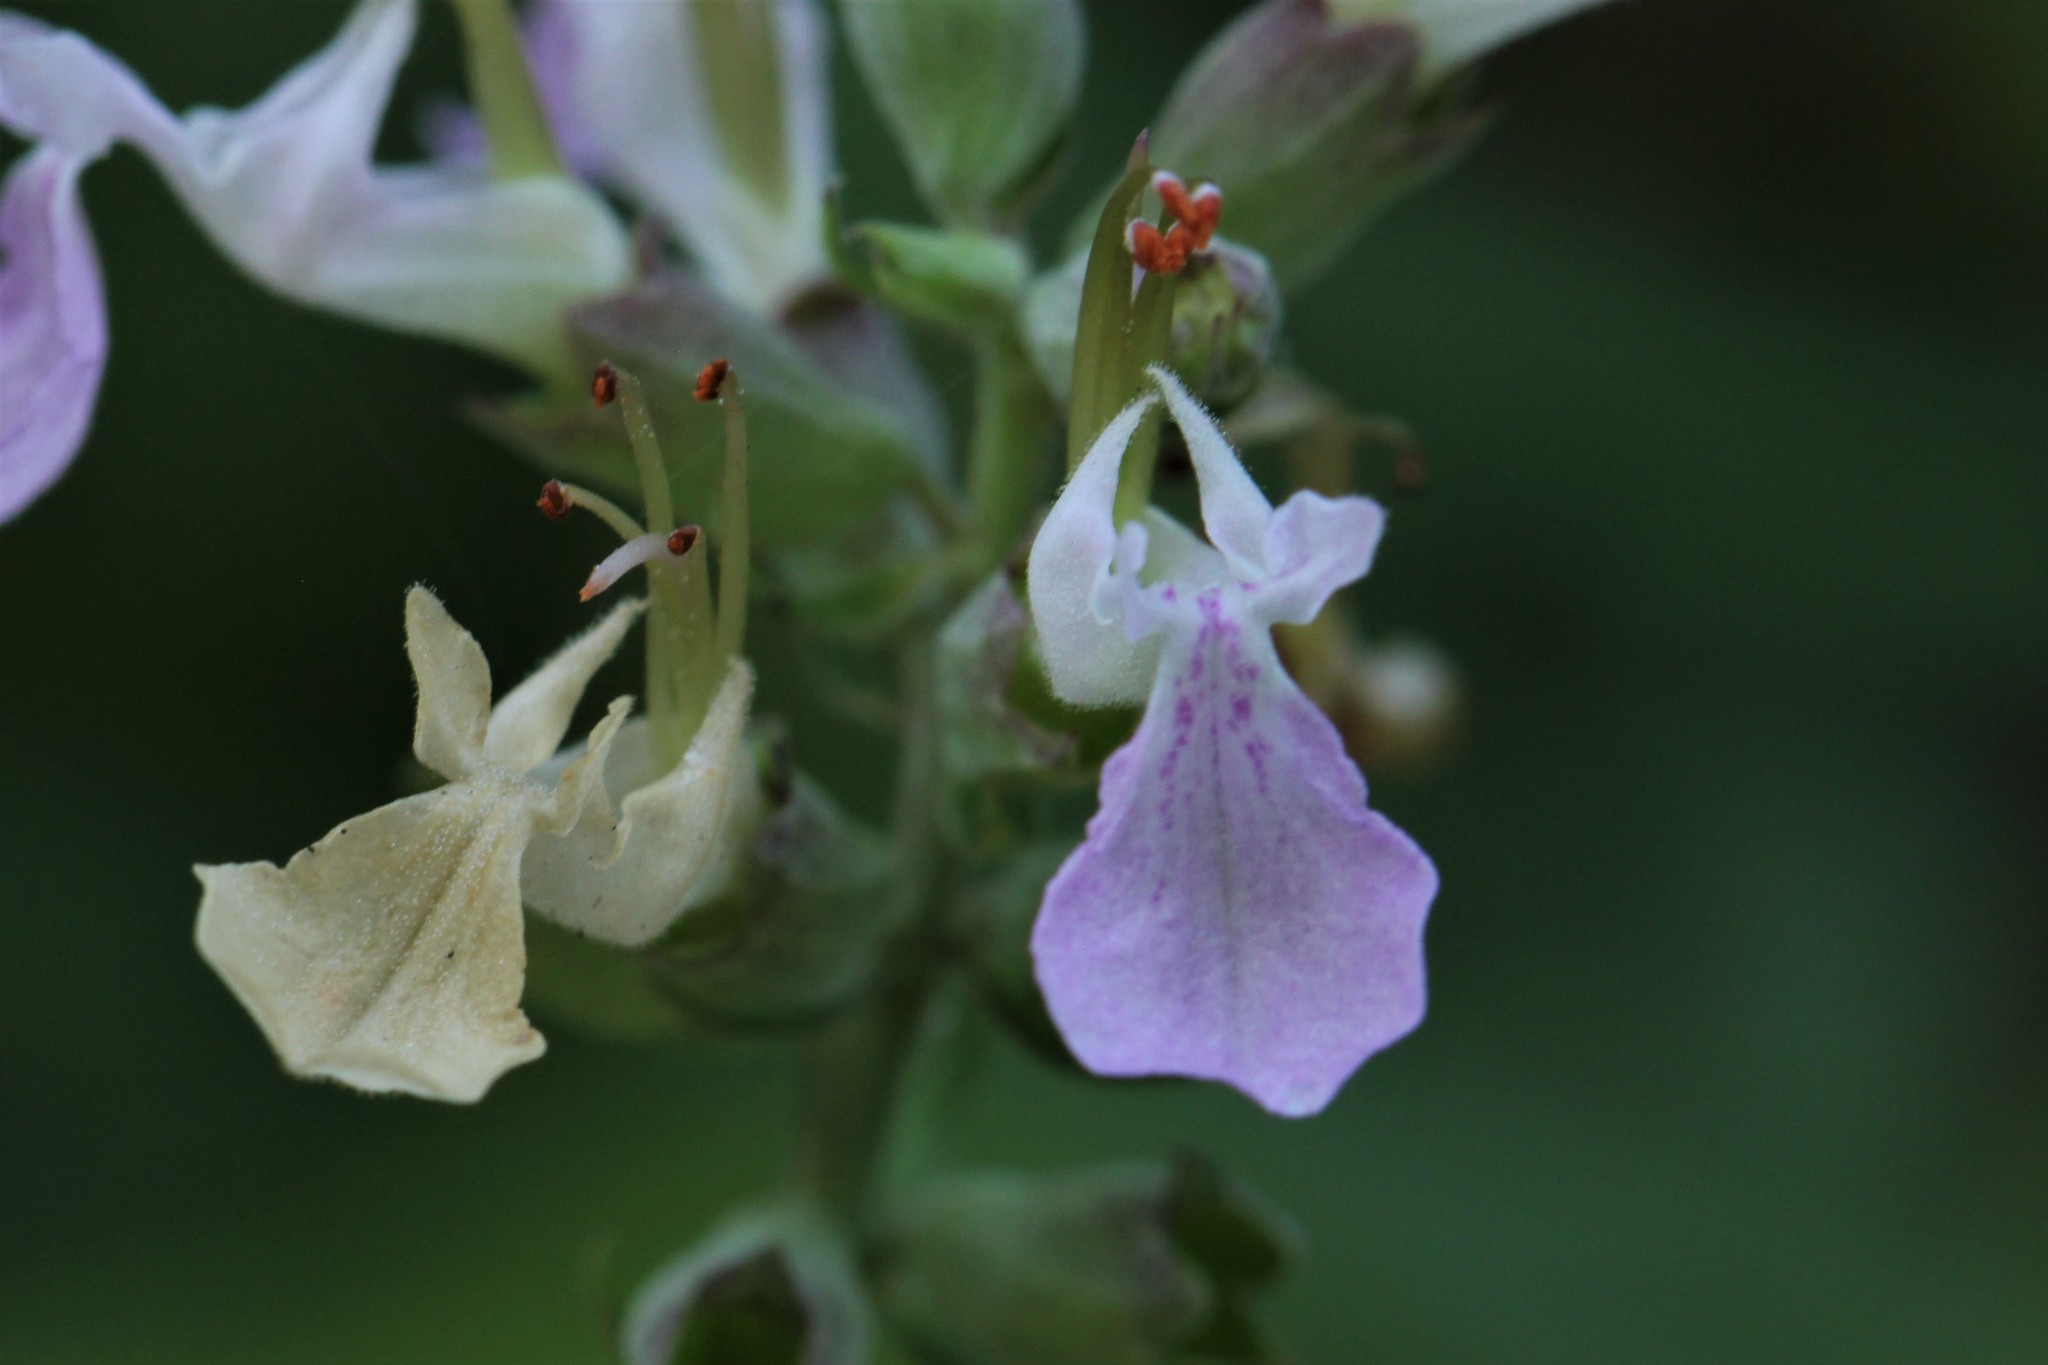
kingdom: Plantae
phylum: Tracheophyta
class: Magnoliopsida
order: Lamiales
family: Lamiaceae
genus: Teucrium
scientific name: Teucrium canadense
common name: American germander
